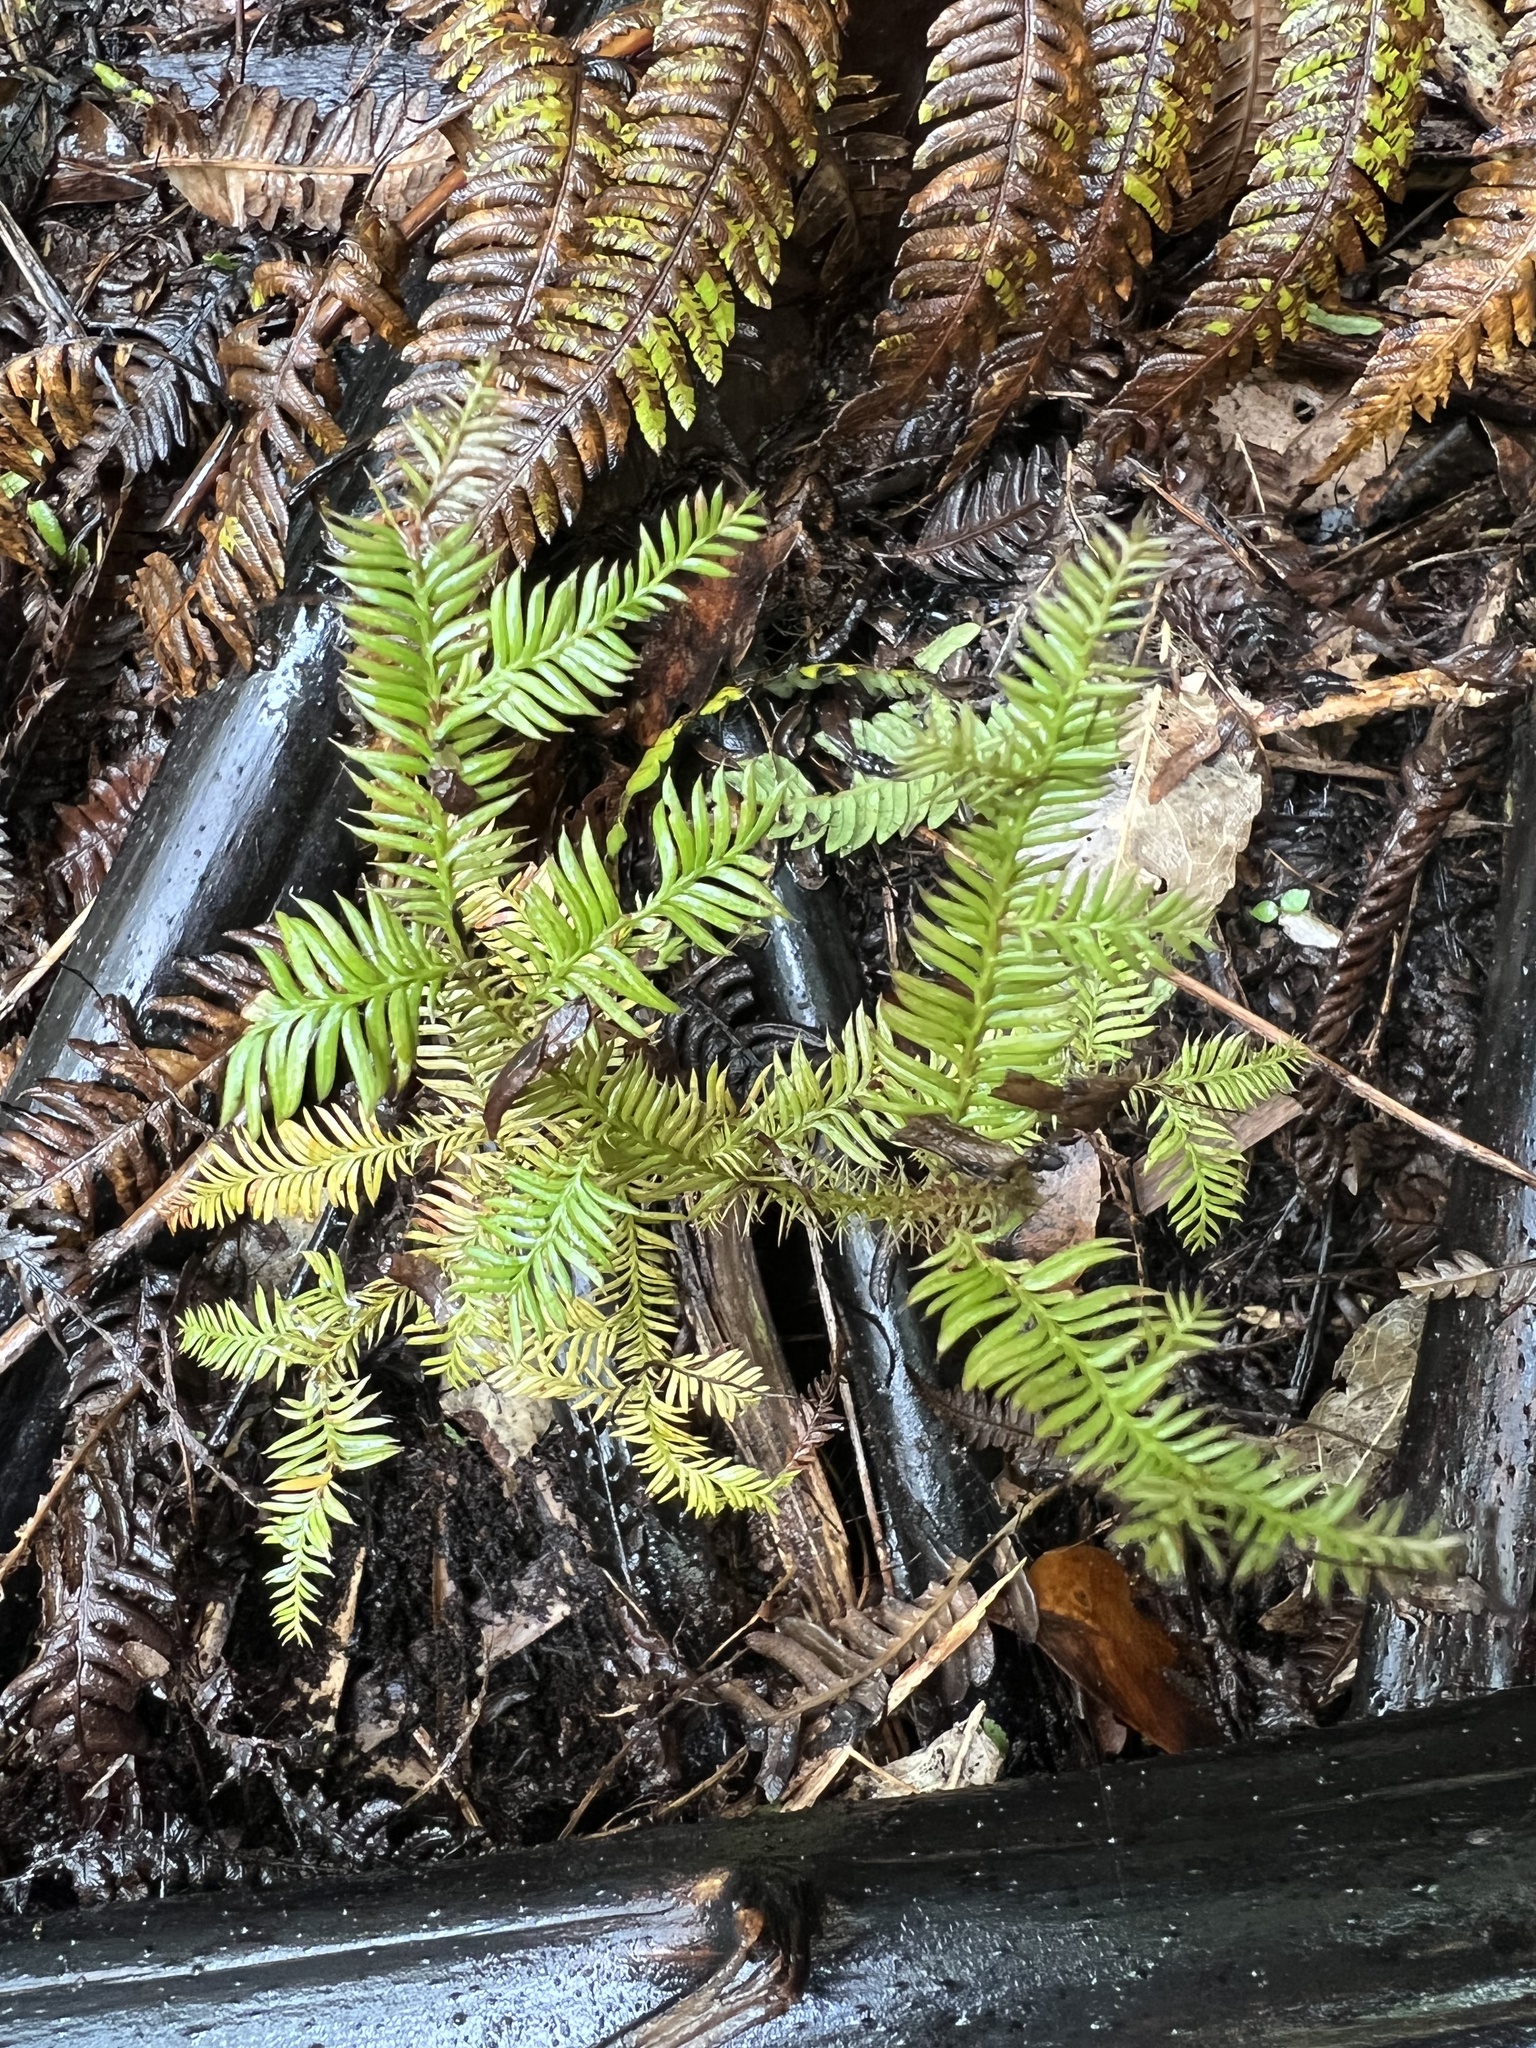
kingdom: Plantae
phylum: Tracheophyta
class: Pinopsida
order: Pinales
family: Podocarpaceae
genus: Dacrycarpus
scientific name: Dacrycarpus dacrydioides
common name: White pine
